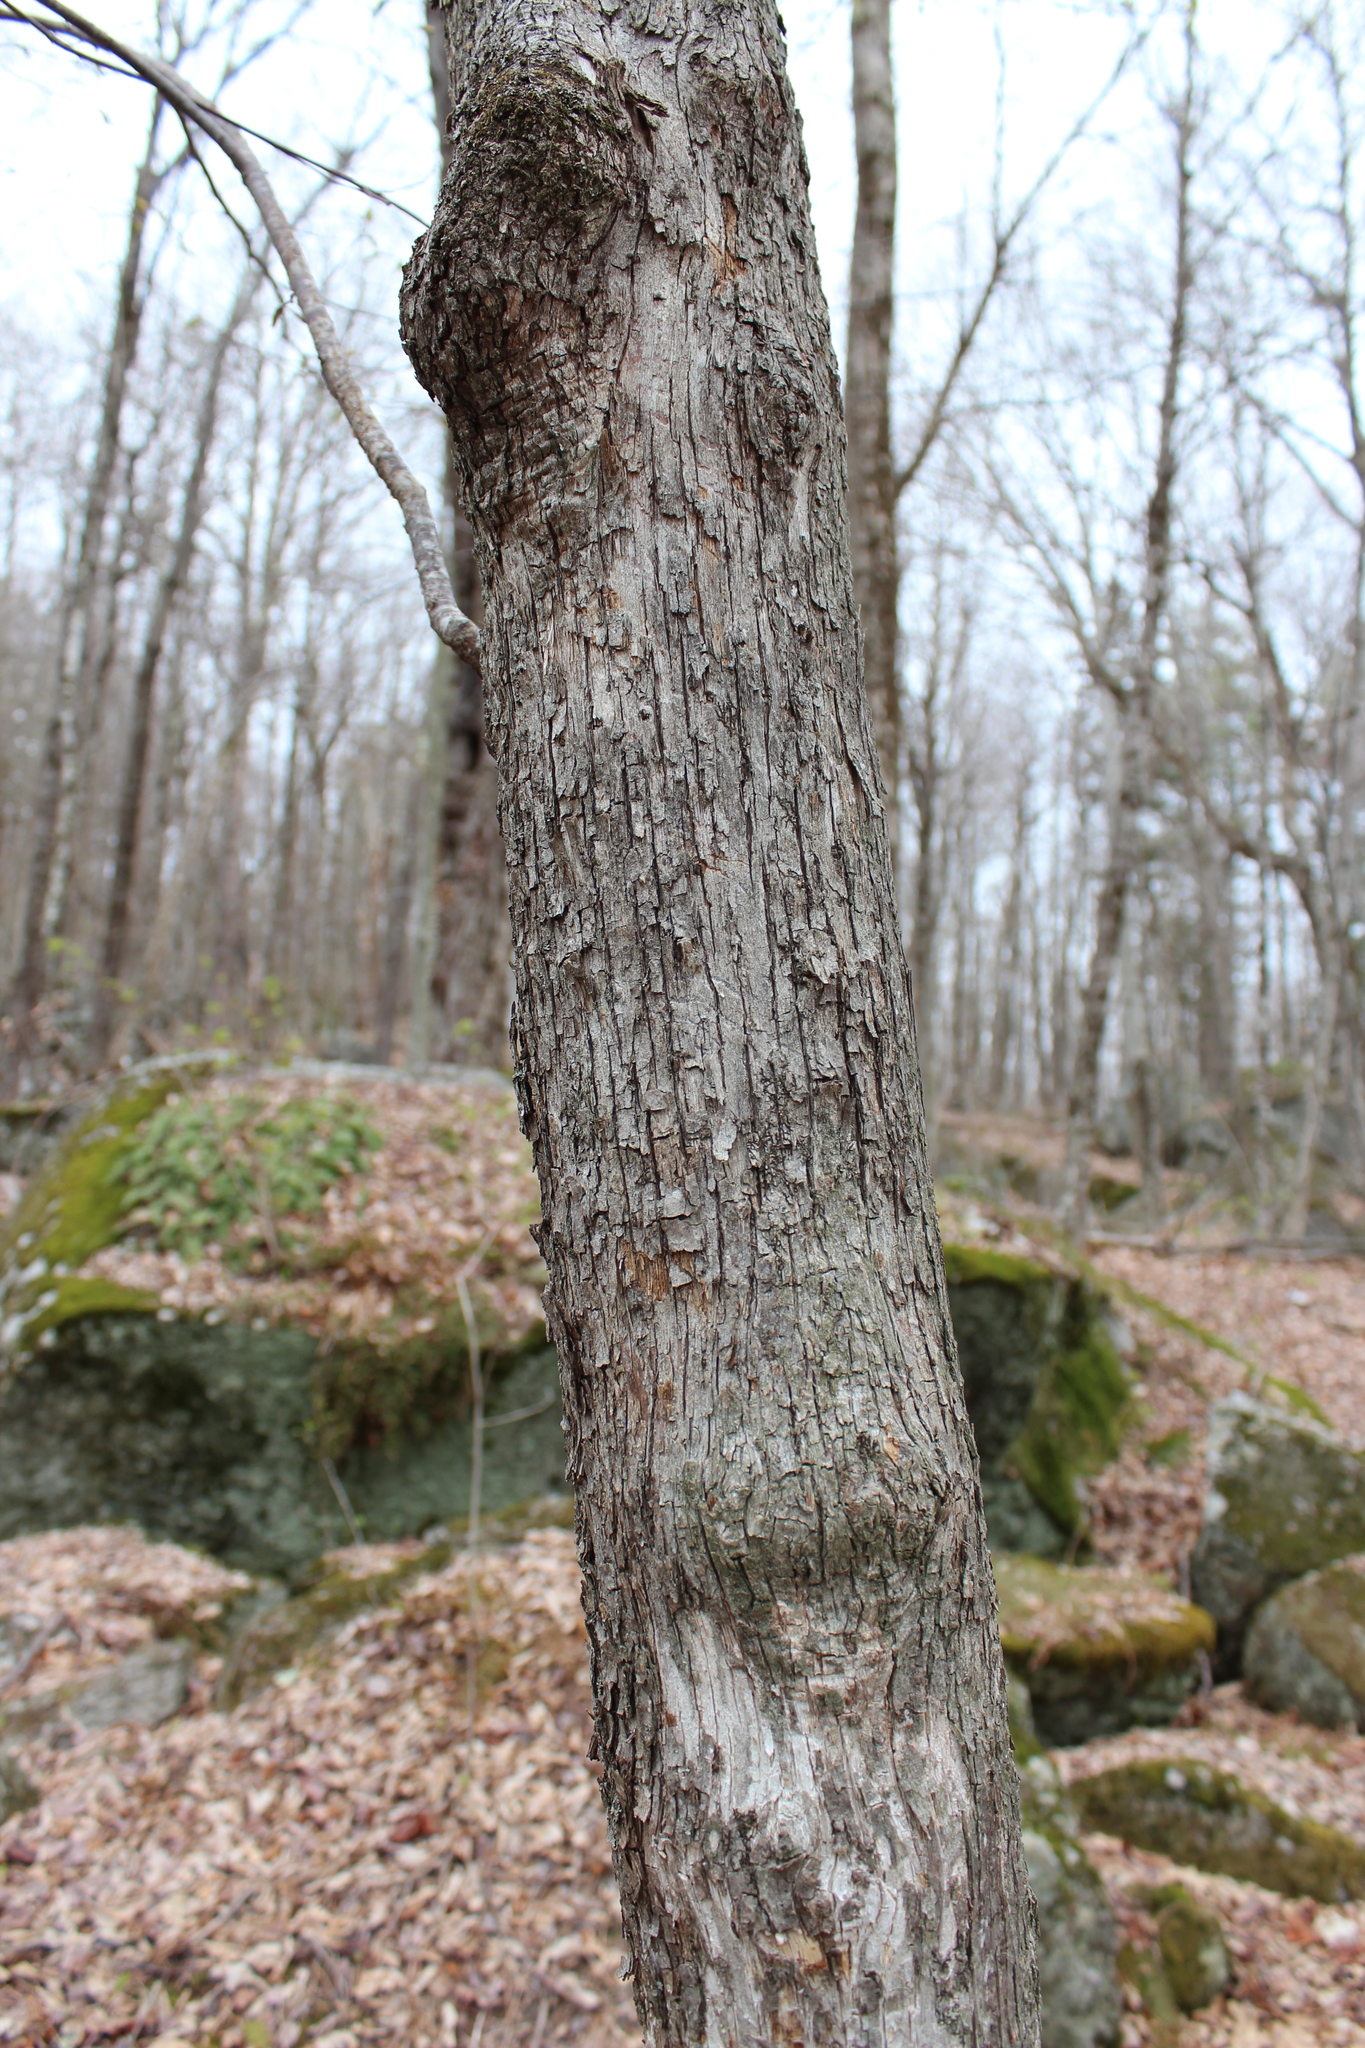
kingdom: Plantae
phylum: Tracheophyta
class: Magnoliopsida
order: Fagales
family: Betulaceae
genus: Ostrya
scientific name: Ostrya virginiana
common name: Ironwood
